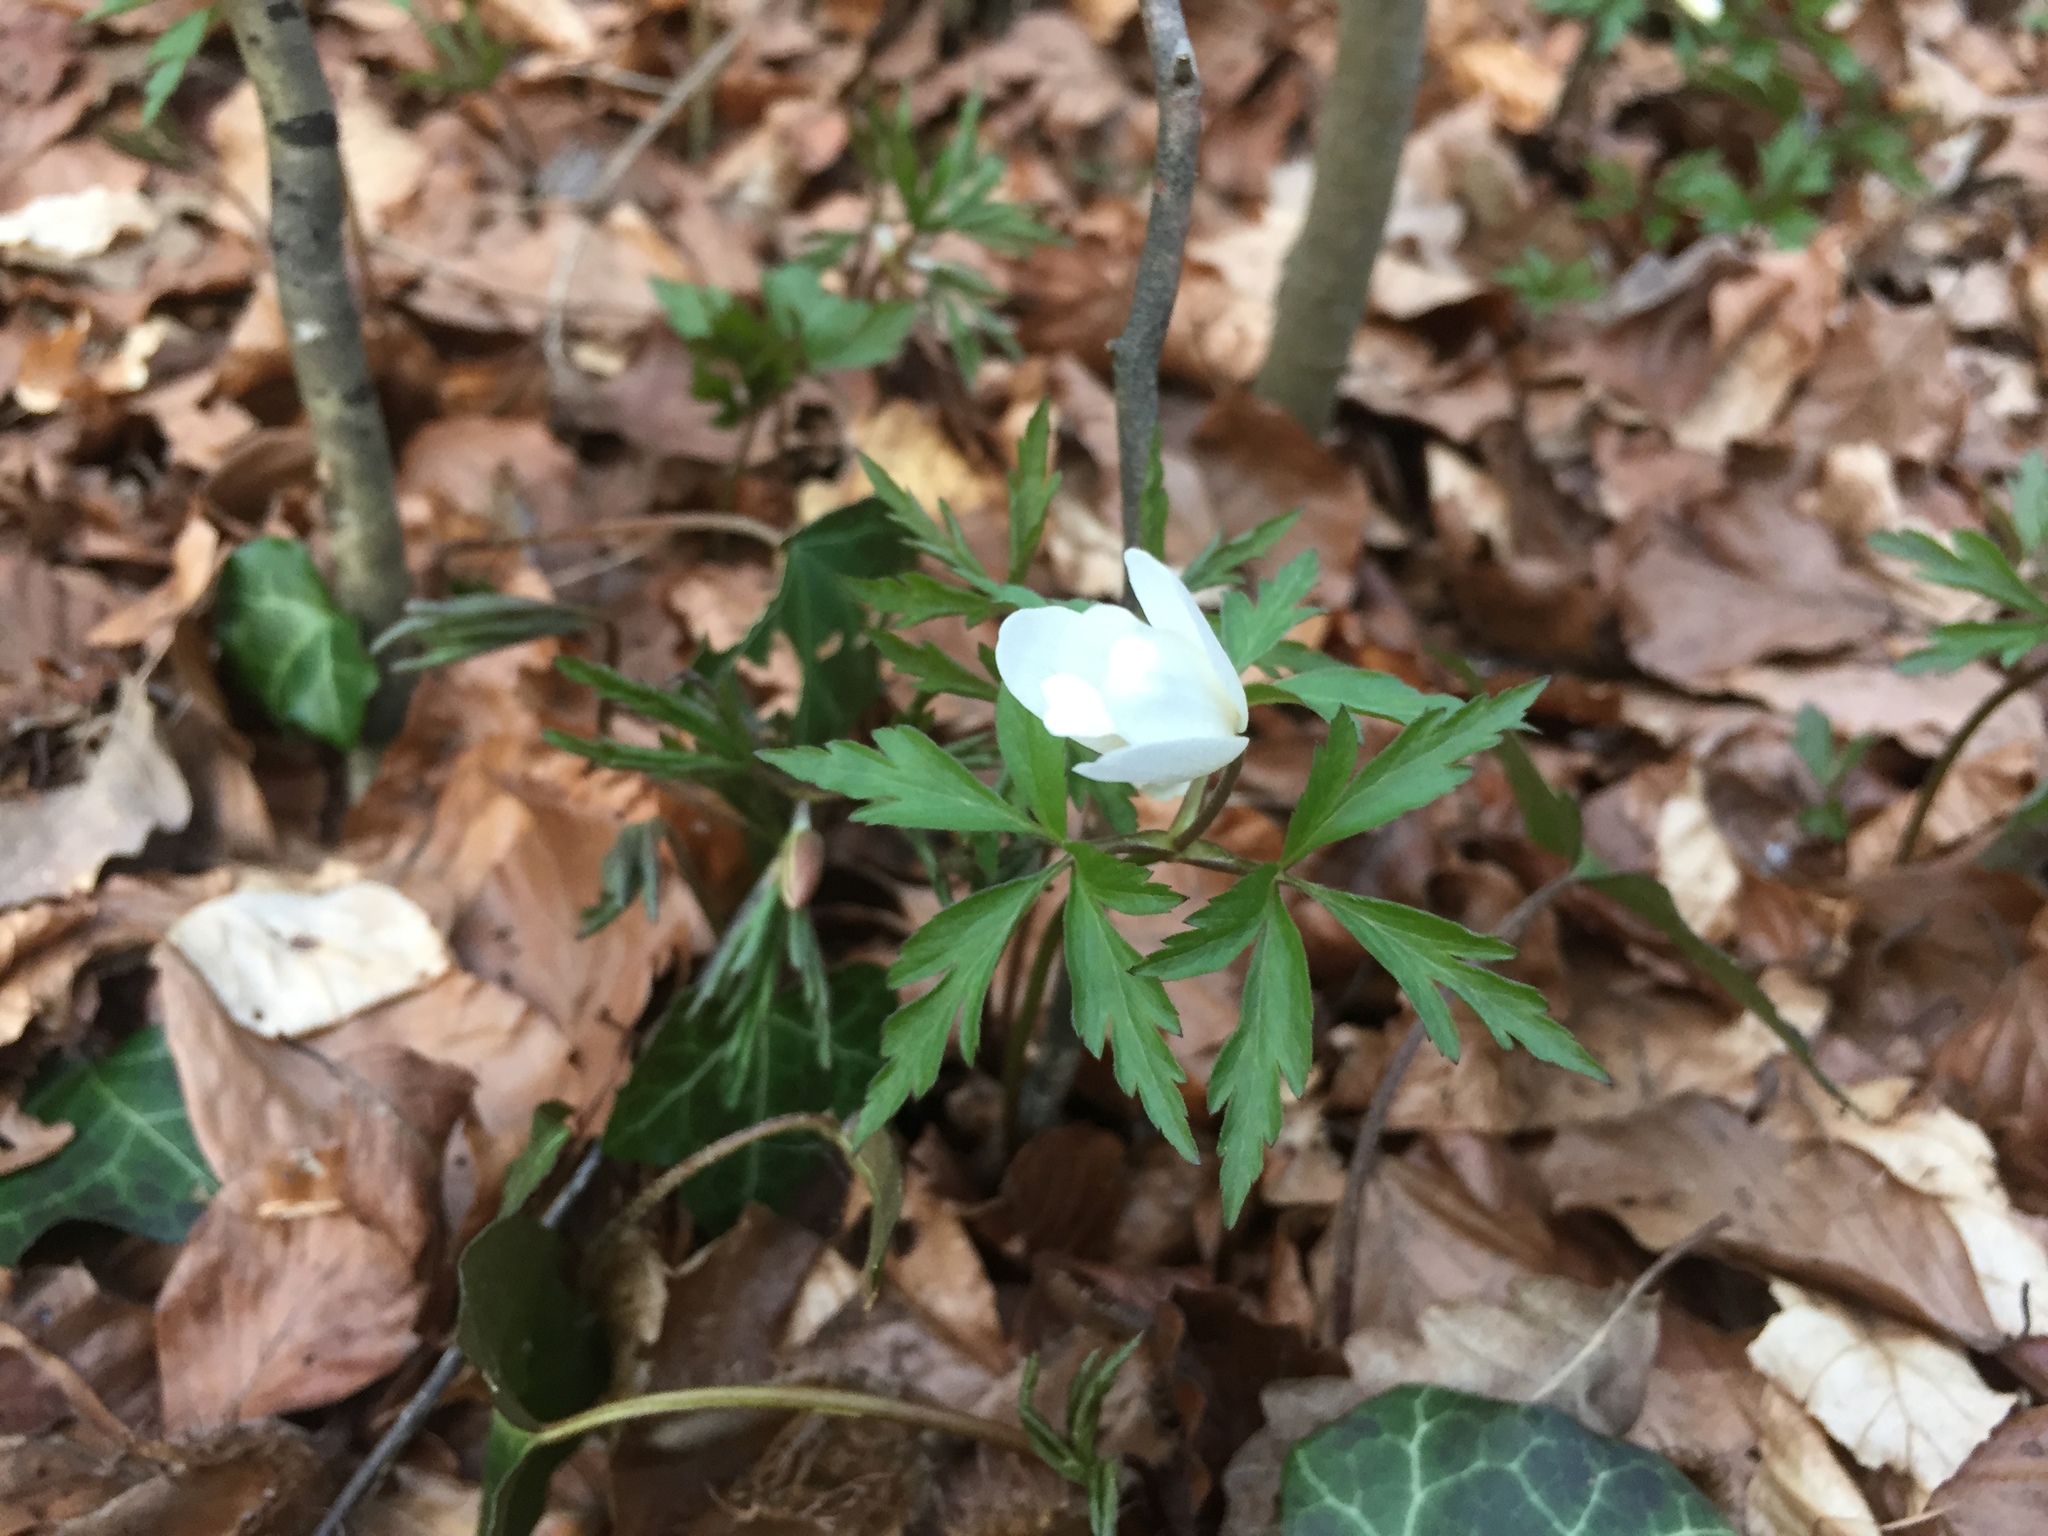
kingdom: Plantae
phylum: Tracheophyta
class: Magnoliopsida
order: Ranunculales
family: Ranunculaceae
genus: Anemone
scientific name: Anemone nemorosa
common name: Wood anemone
